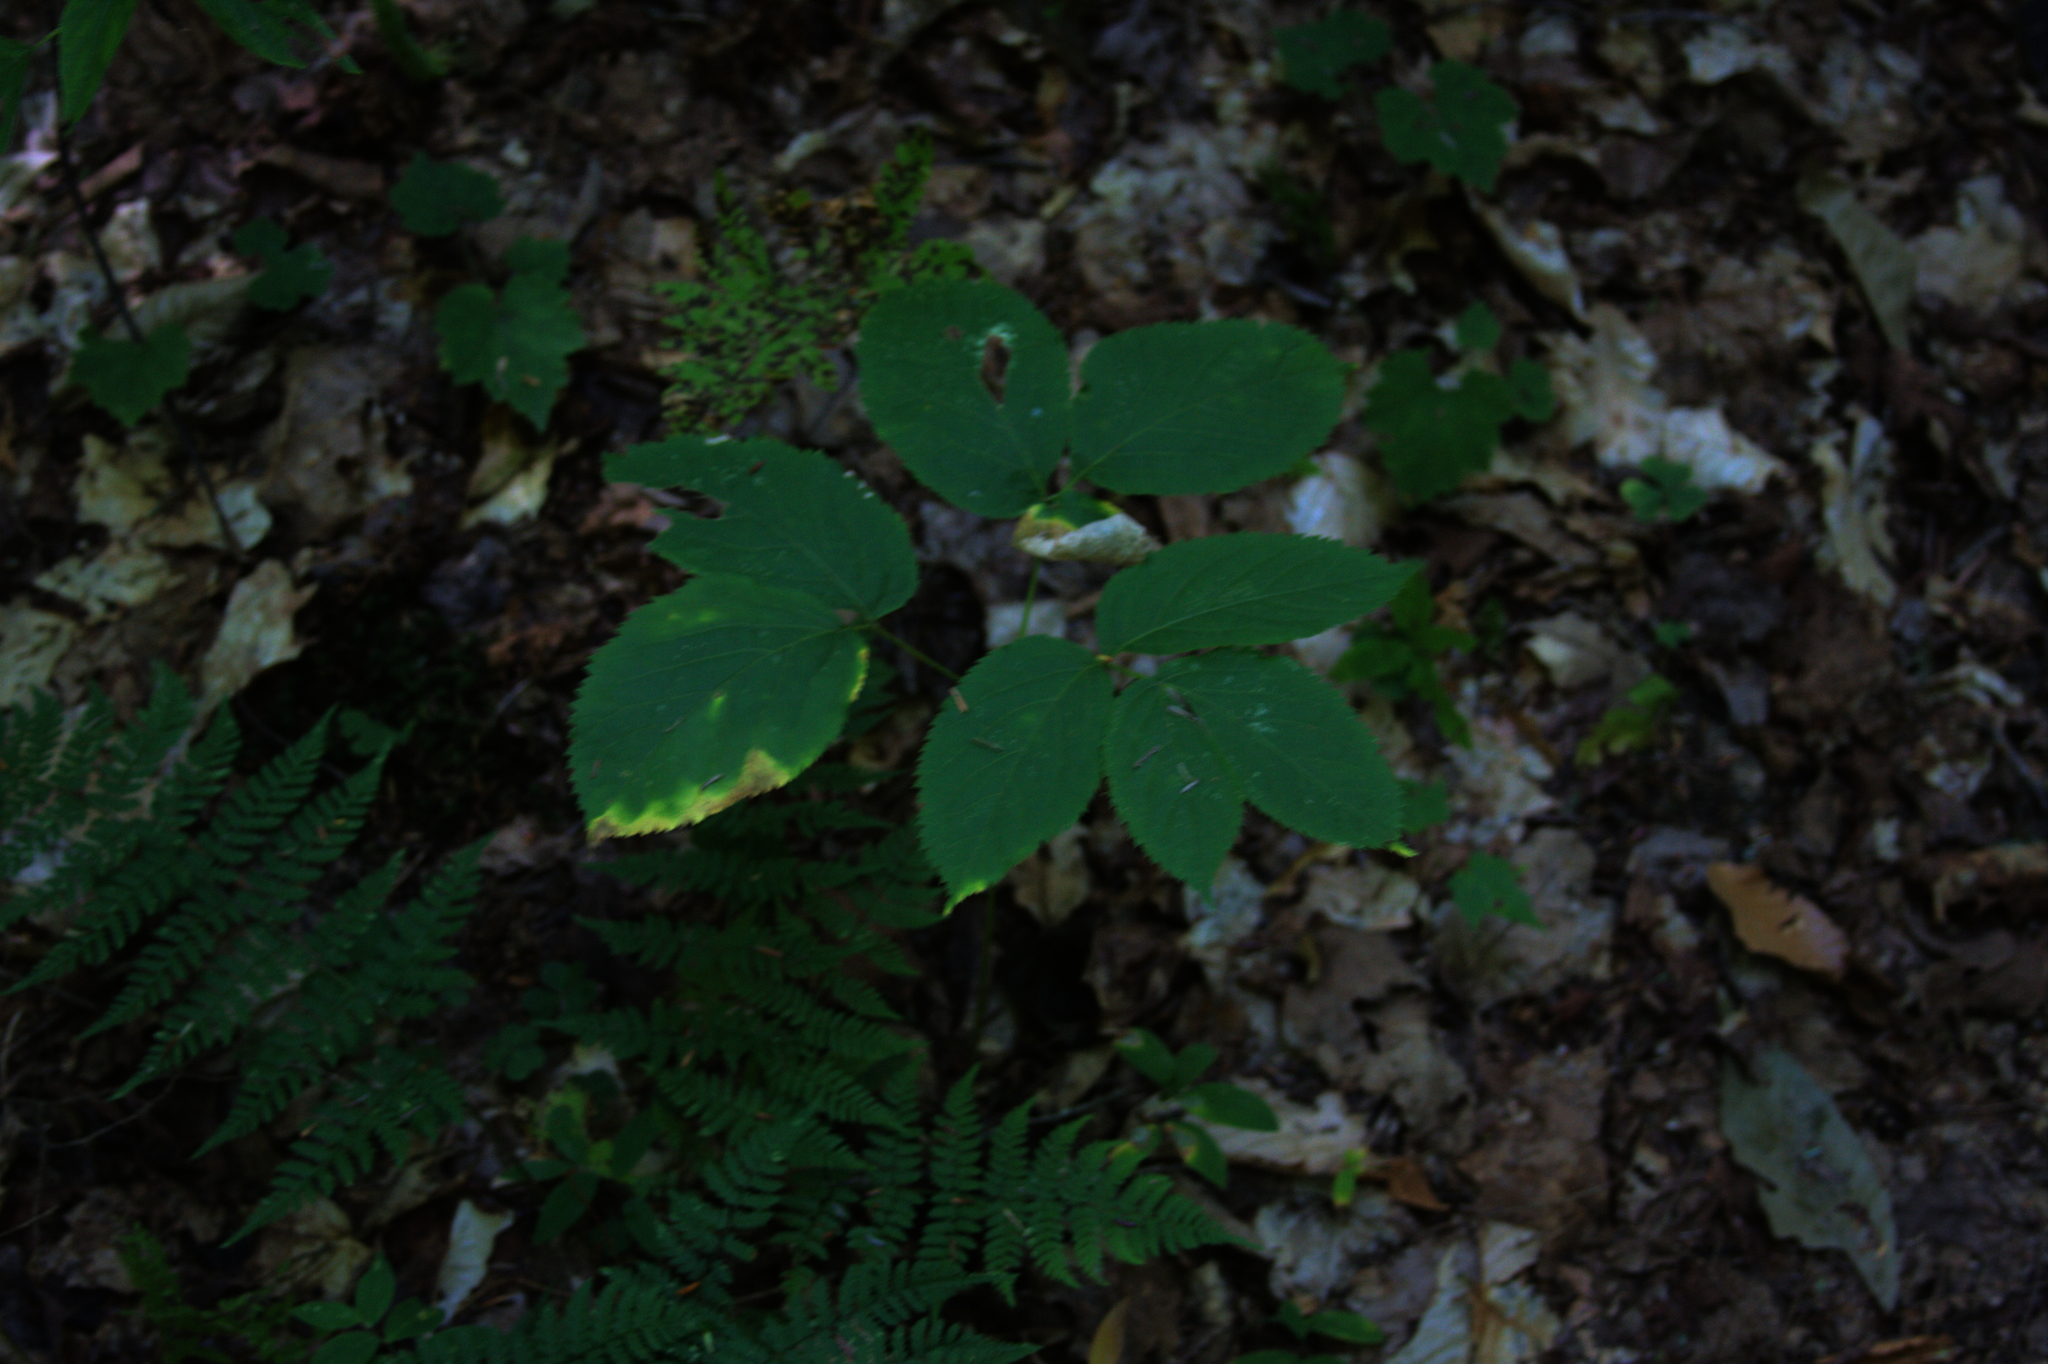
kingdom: Plantae
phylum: Tracheophyta
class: Magnoliopsida
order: Apiales
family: Araliaceae
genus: Aralia
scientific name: Aralia nudicaulis
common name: Wild sarsaparilla
